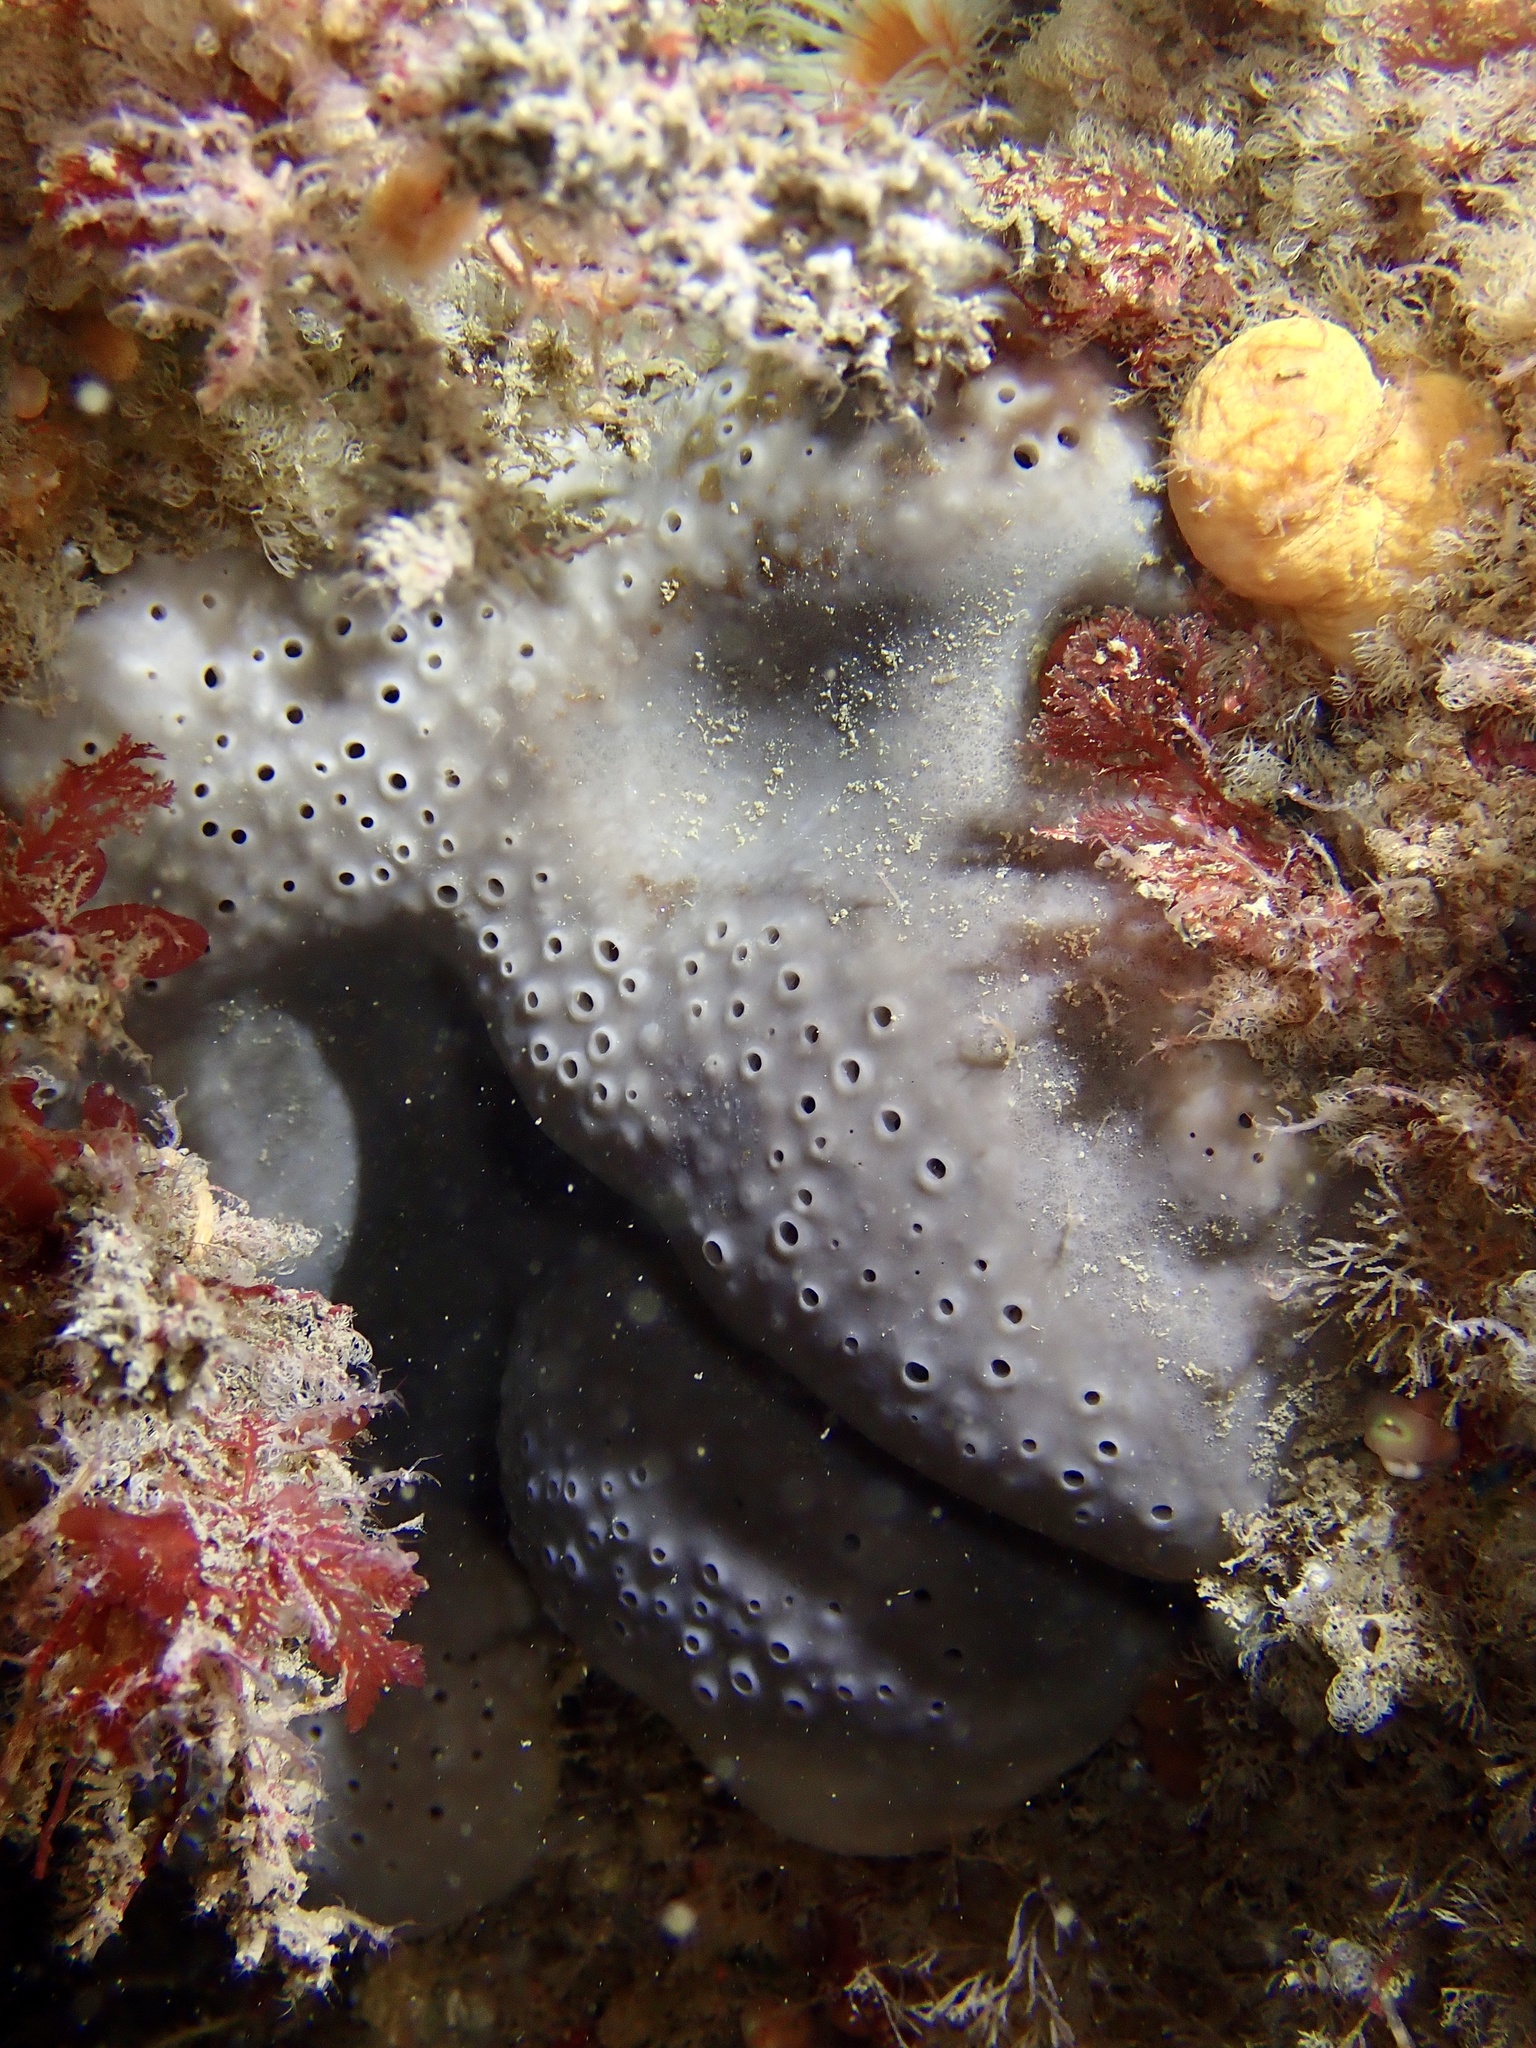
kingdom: Animalia
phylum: Porifera
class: Demospongiae
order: Tetractinellida
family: Geodiidae
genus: Pachymatisma
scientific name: Pachymatisma johnstonia
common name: Elephant ear sponge
